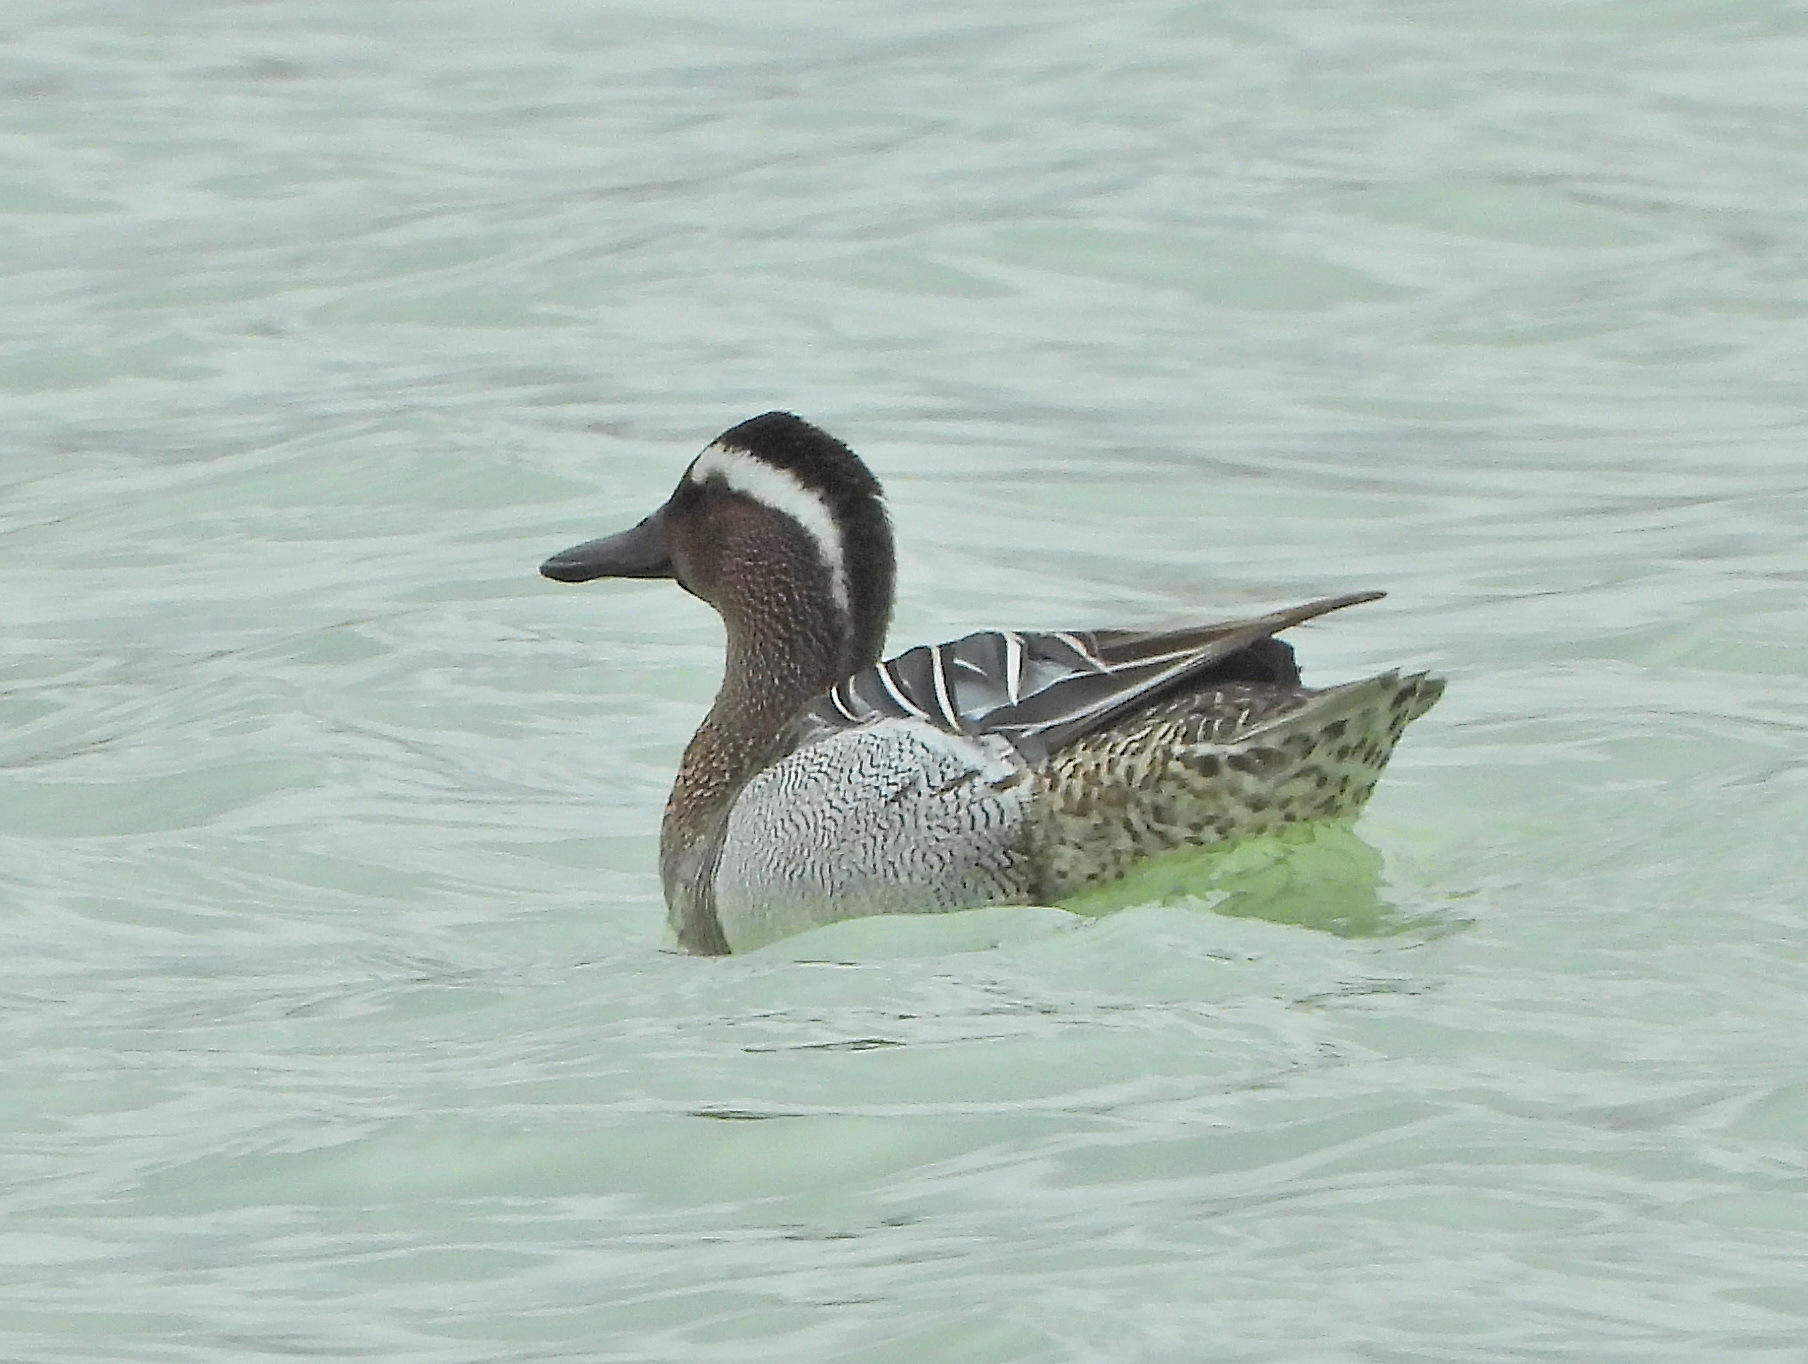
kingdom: Animalia
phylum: Chordata
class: Aves
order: Anseriformes
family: Anatidae
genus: Spatula
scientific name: Spatula querquedula
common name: Garganey
